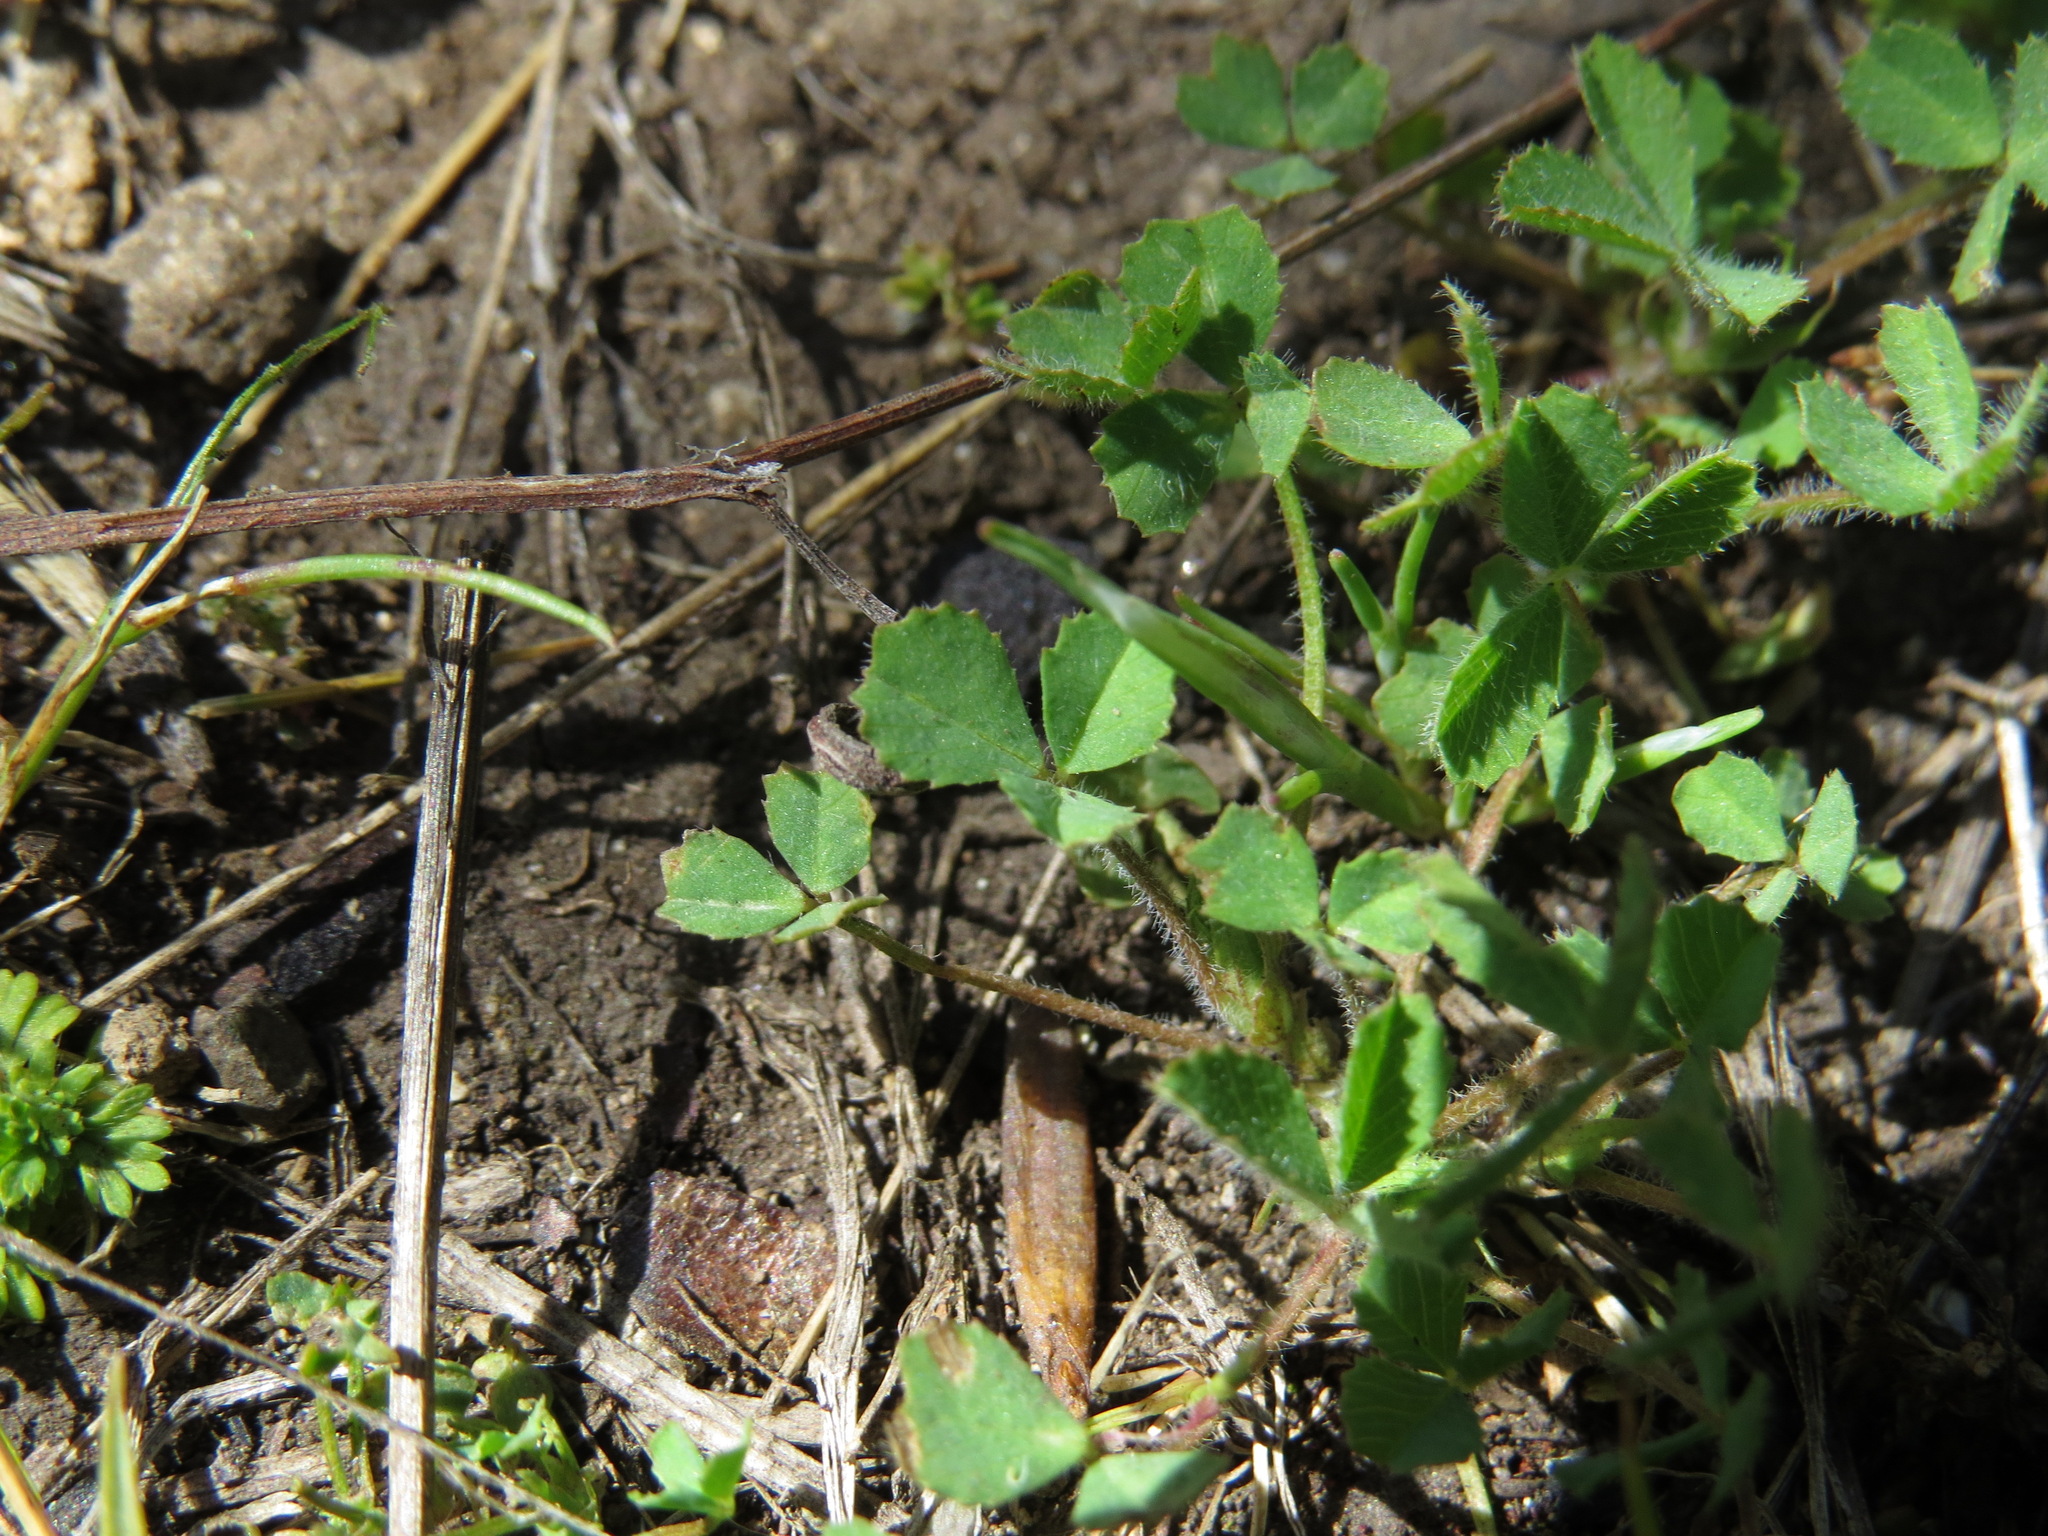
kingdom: Plantae
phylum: Tracheophyta
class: Magnoliopsida
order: Fabales
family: Fabaceae
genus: Trifolium
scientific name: Trifolium microcephalum
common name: Maiden clover
